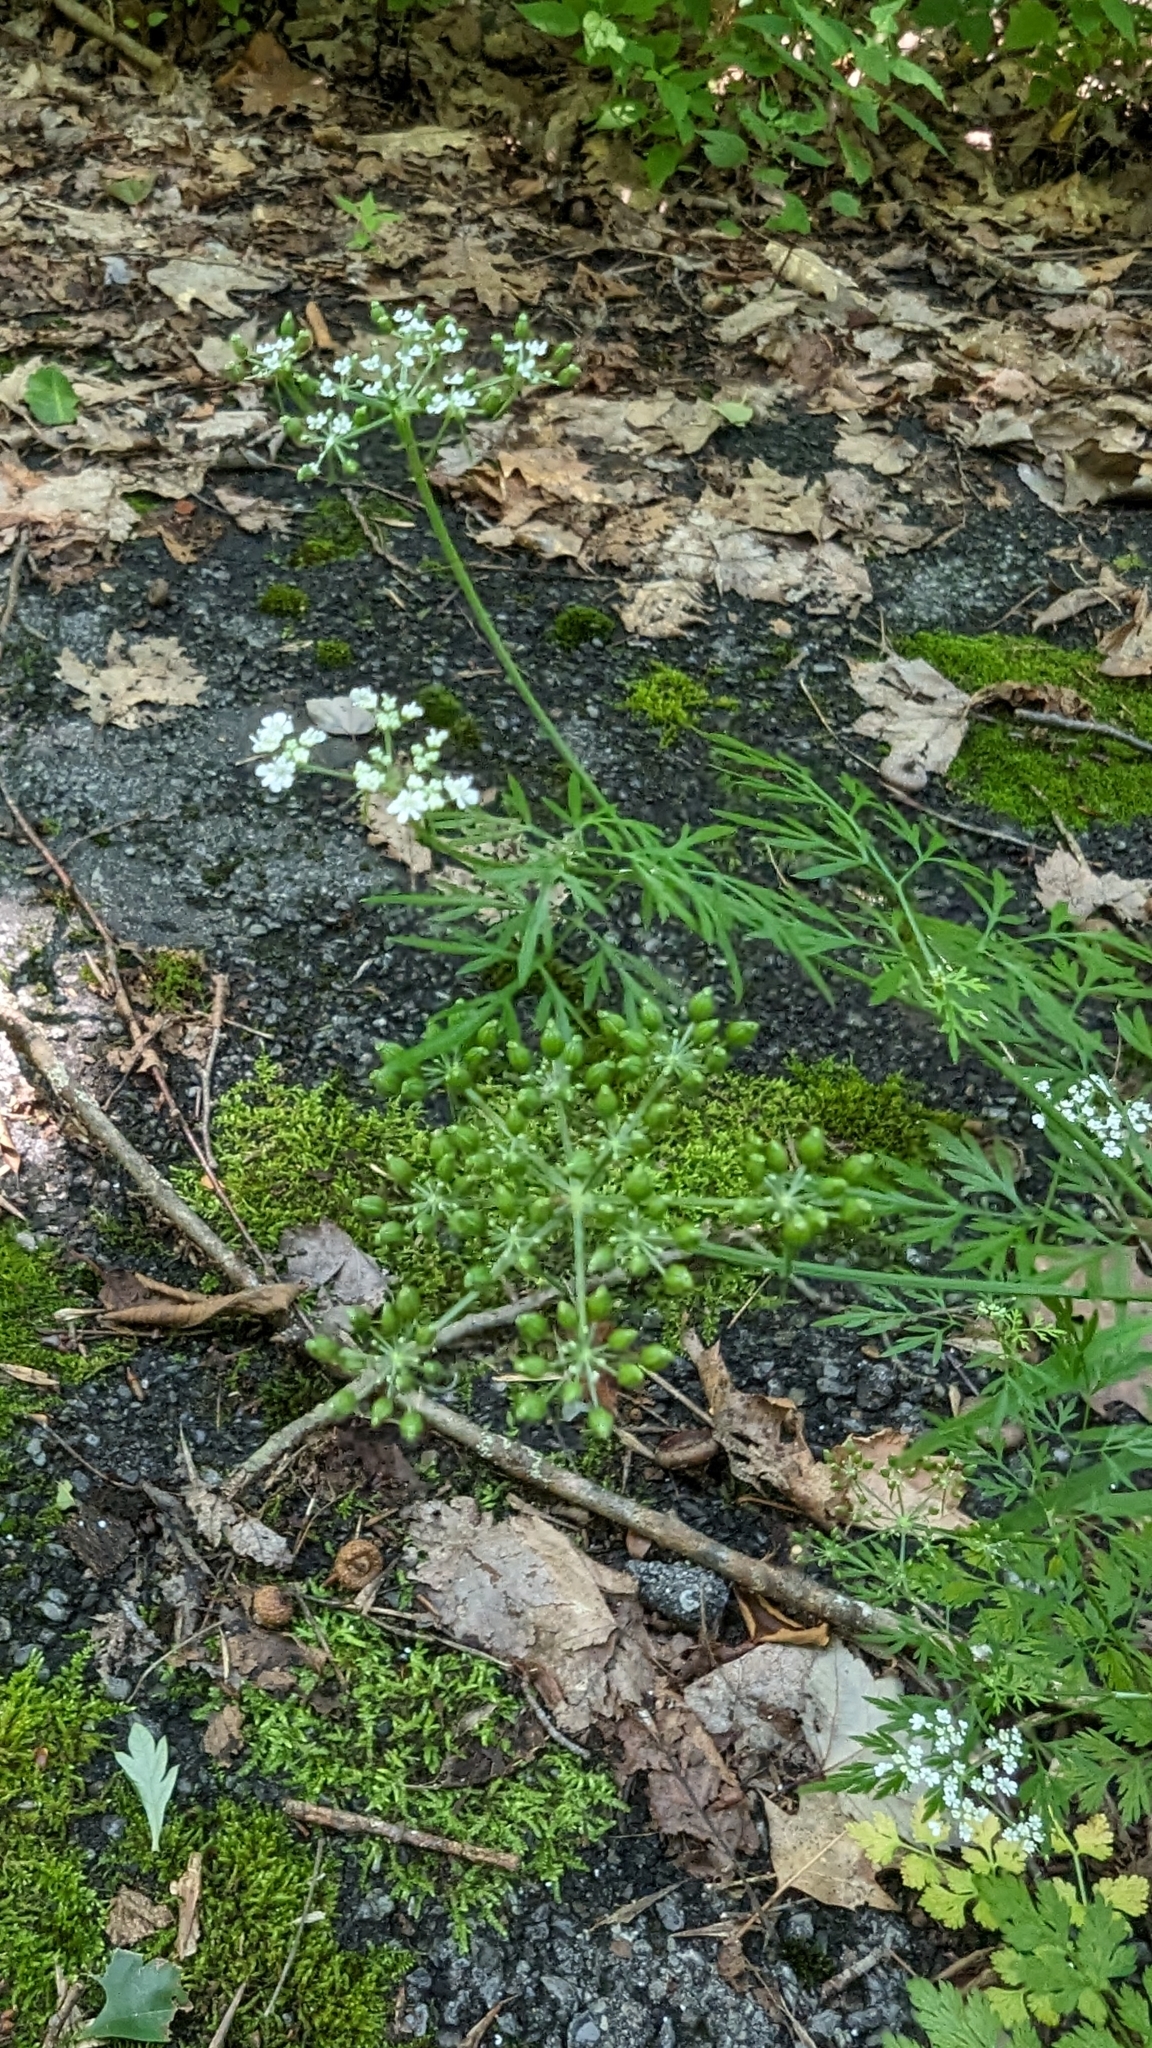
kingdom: Plantae
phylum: Tracheophyta
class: Magnoliopsida
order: Apiales
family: Apiaceae
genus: Conium
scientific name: Conium maculatum
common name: Hemlock
